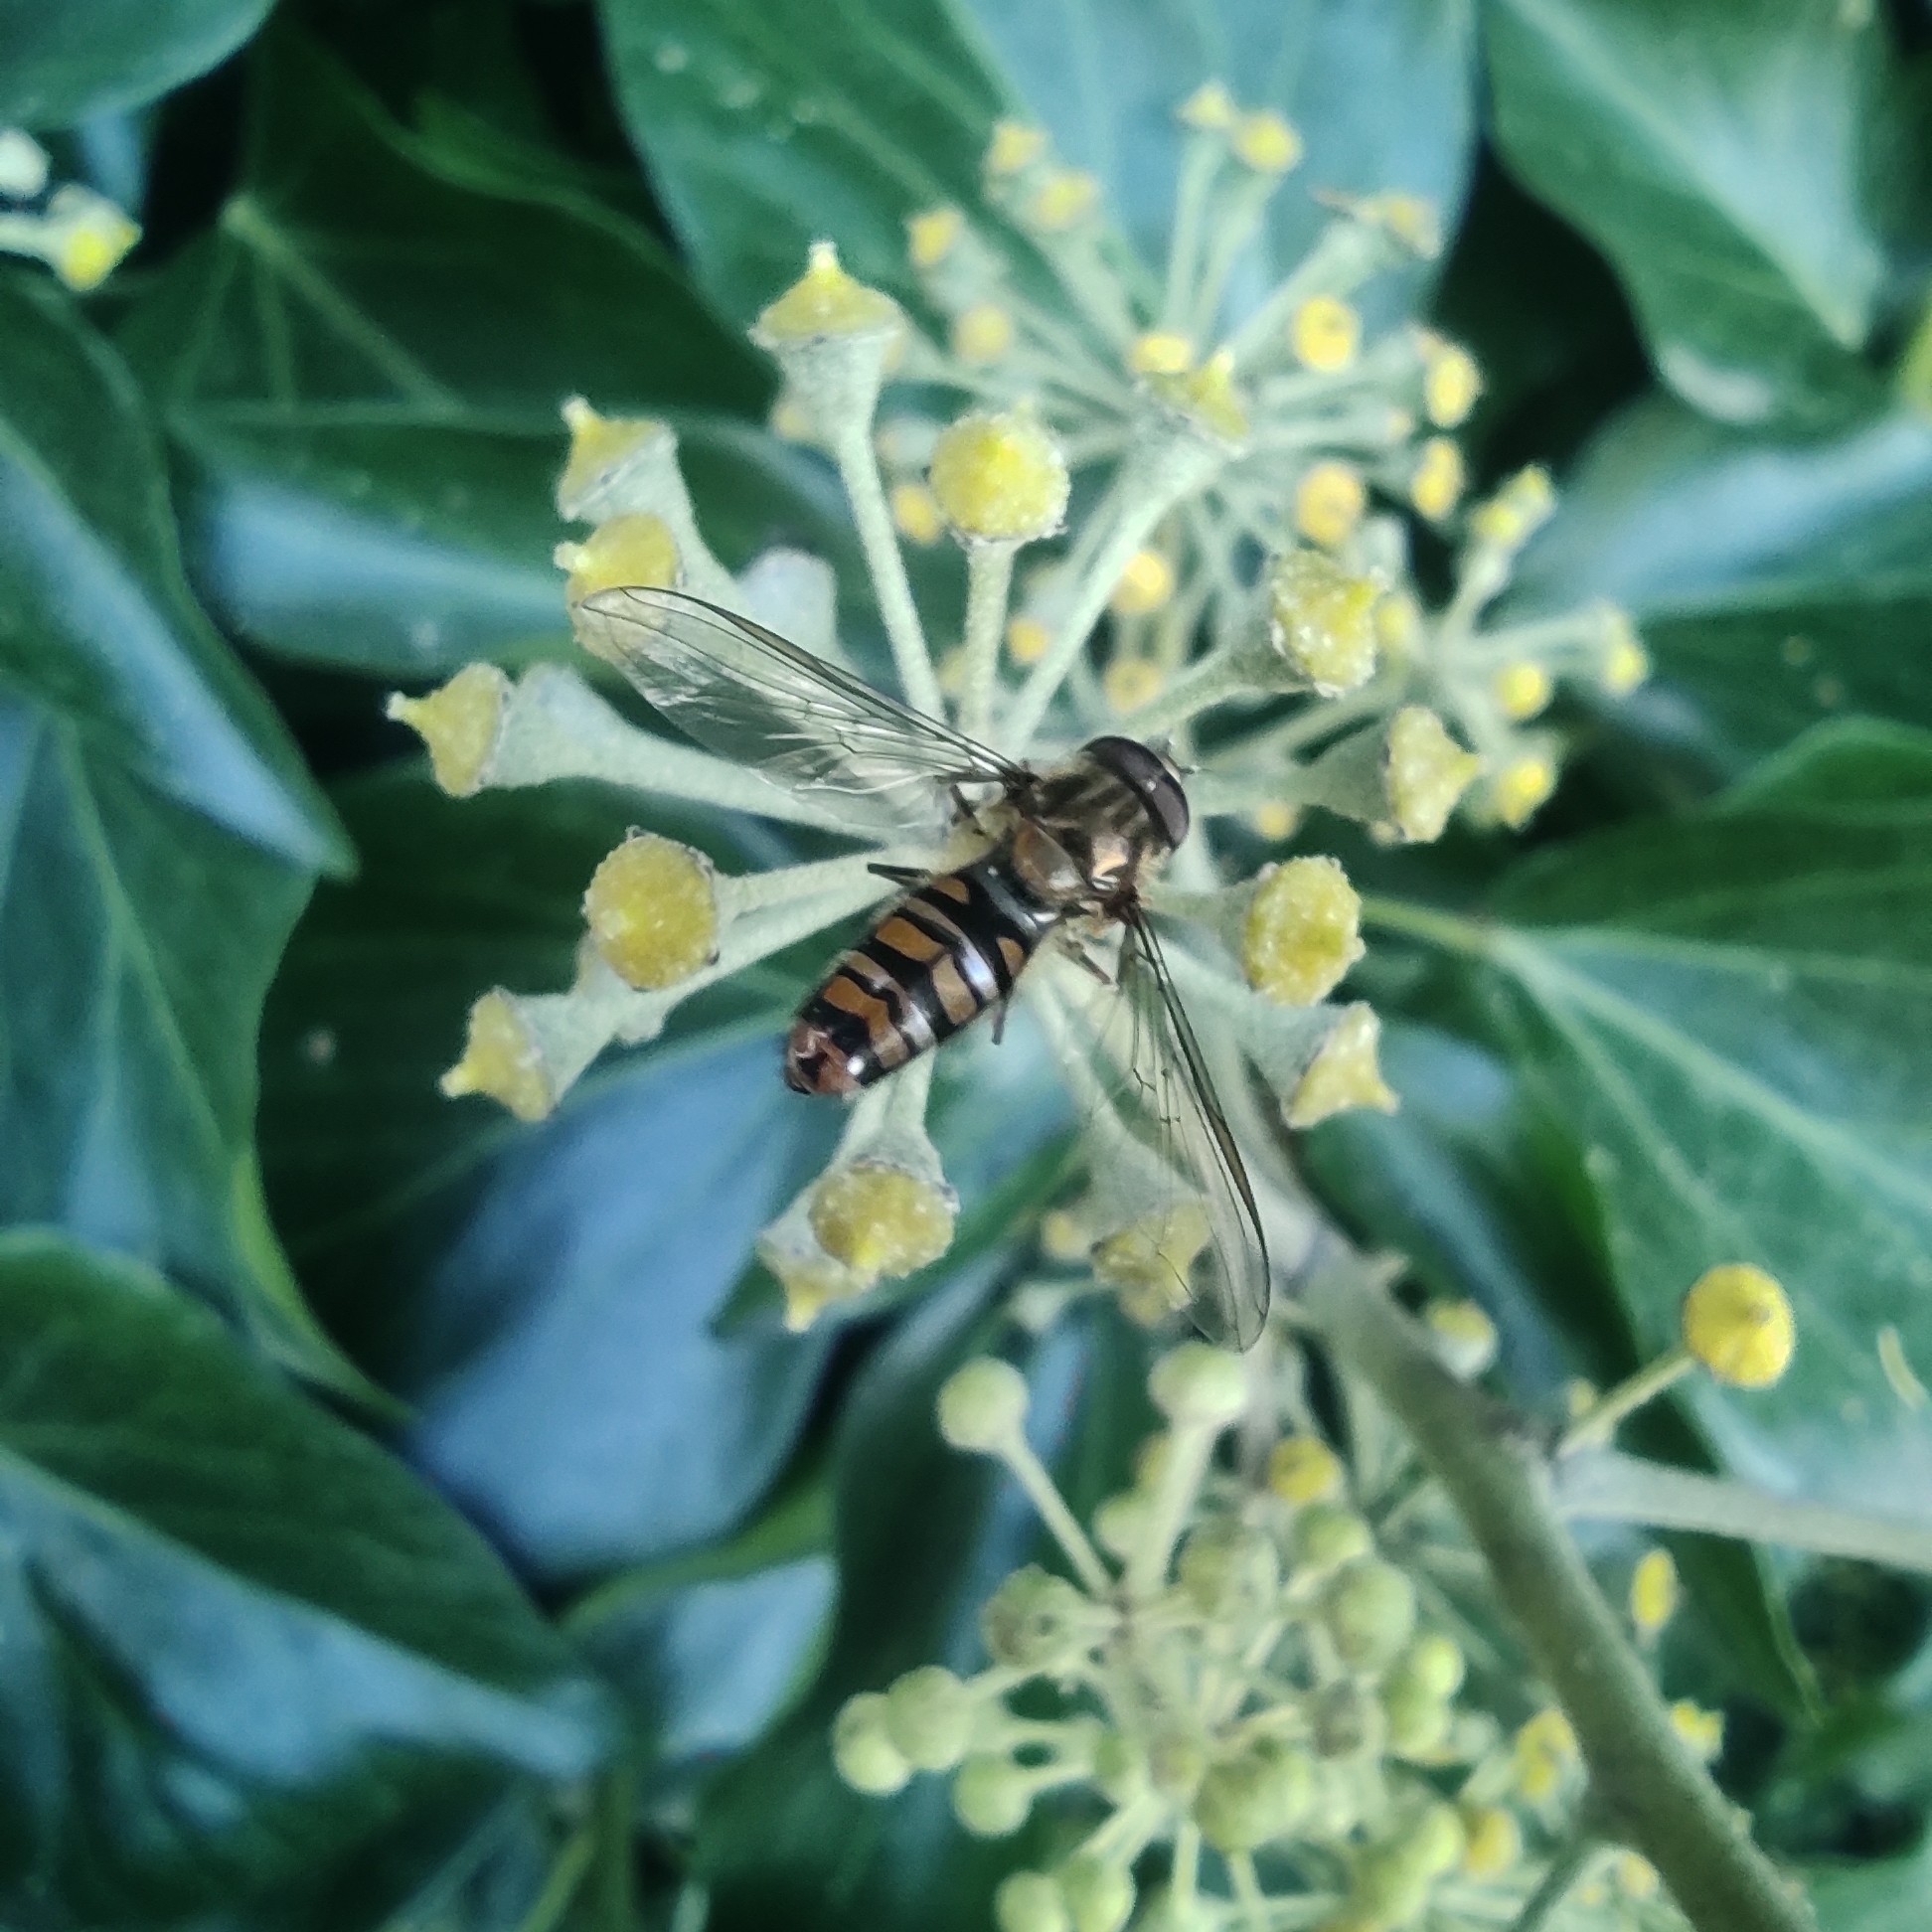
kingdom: Animalia
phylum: Arthropoda
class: Insecta
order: Diptera
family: Syrphidae
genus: Episyrphus
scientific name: Episyrphus balteatus
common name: Marmalade hoverfly
